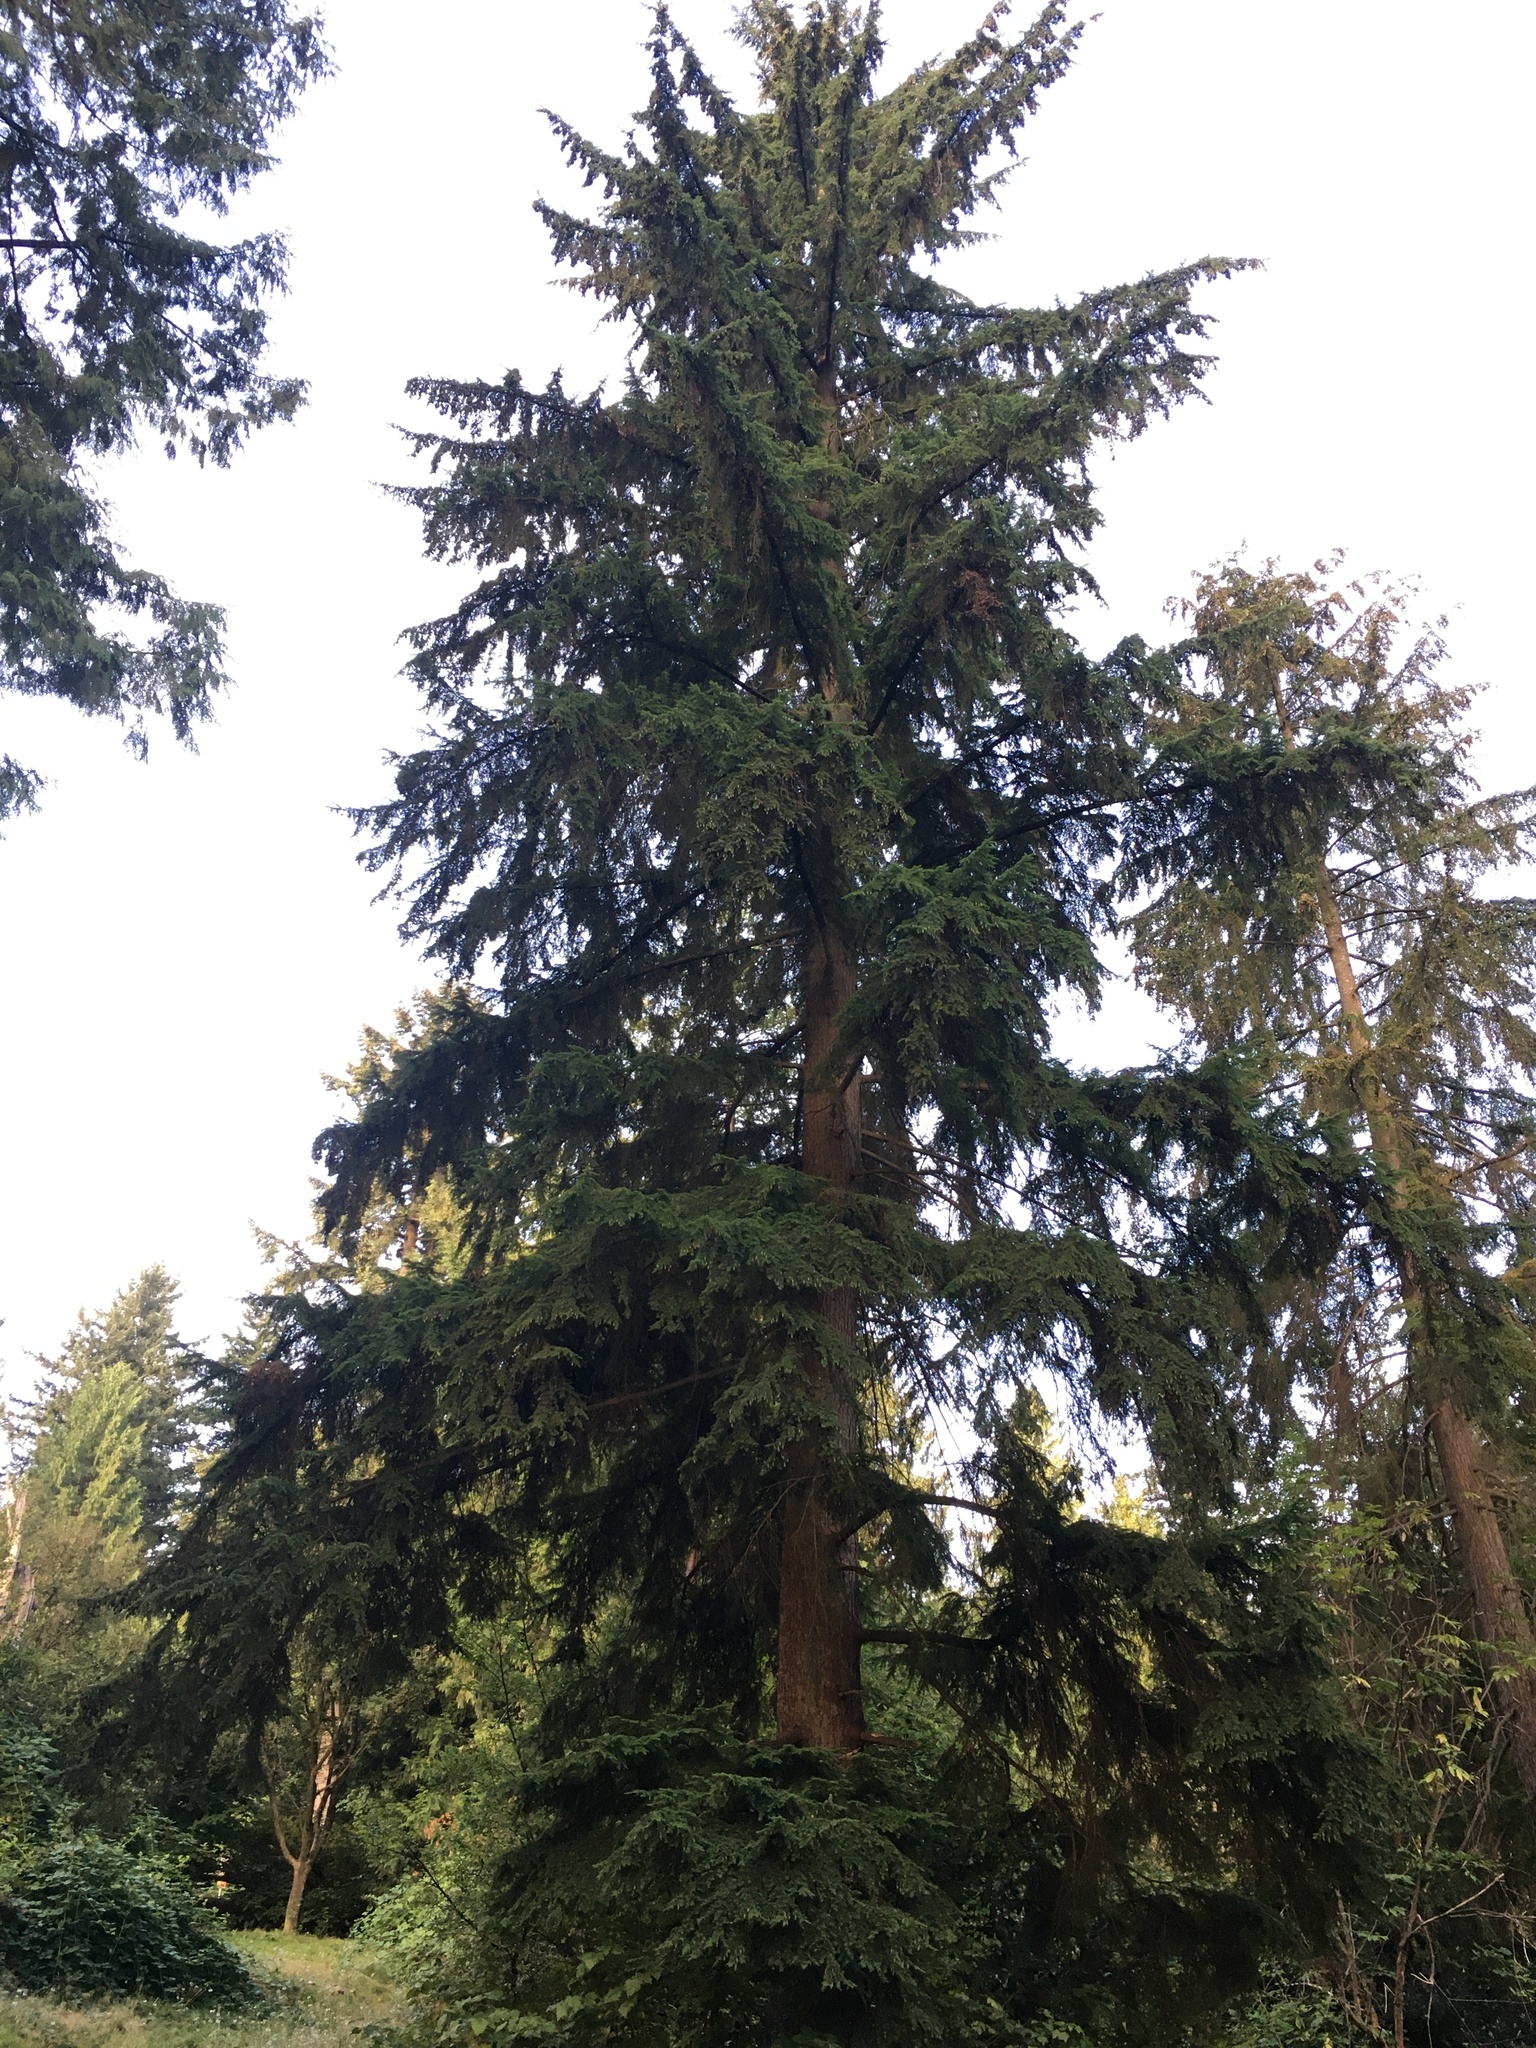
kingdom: Plantae
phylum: Tracheophyta
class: Pinopsida
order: Pinales
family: Pinaceae
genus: Tsuga
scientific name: Tsuga heterophylla
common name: Western hemlock
